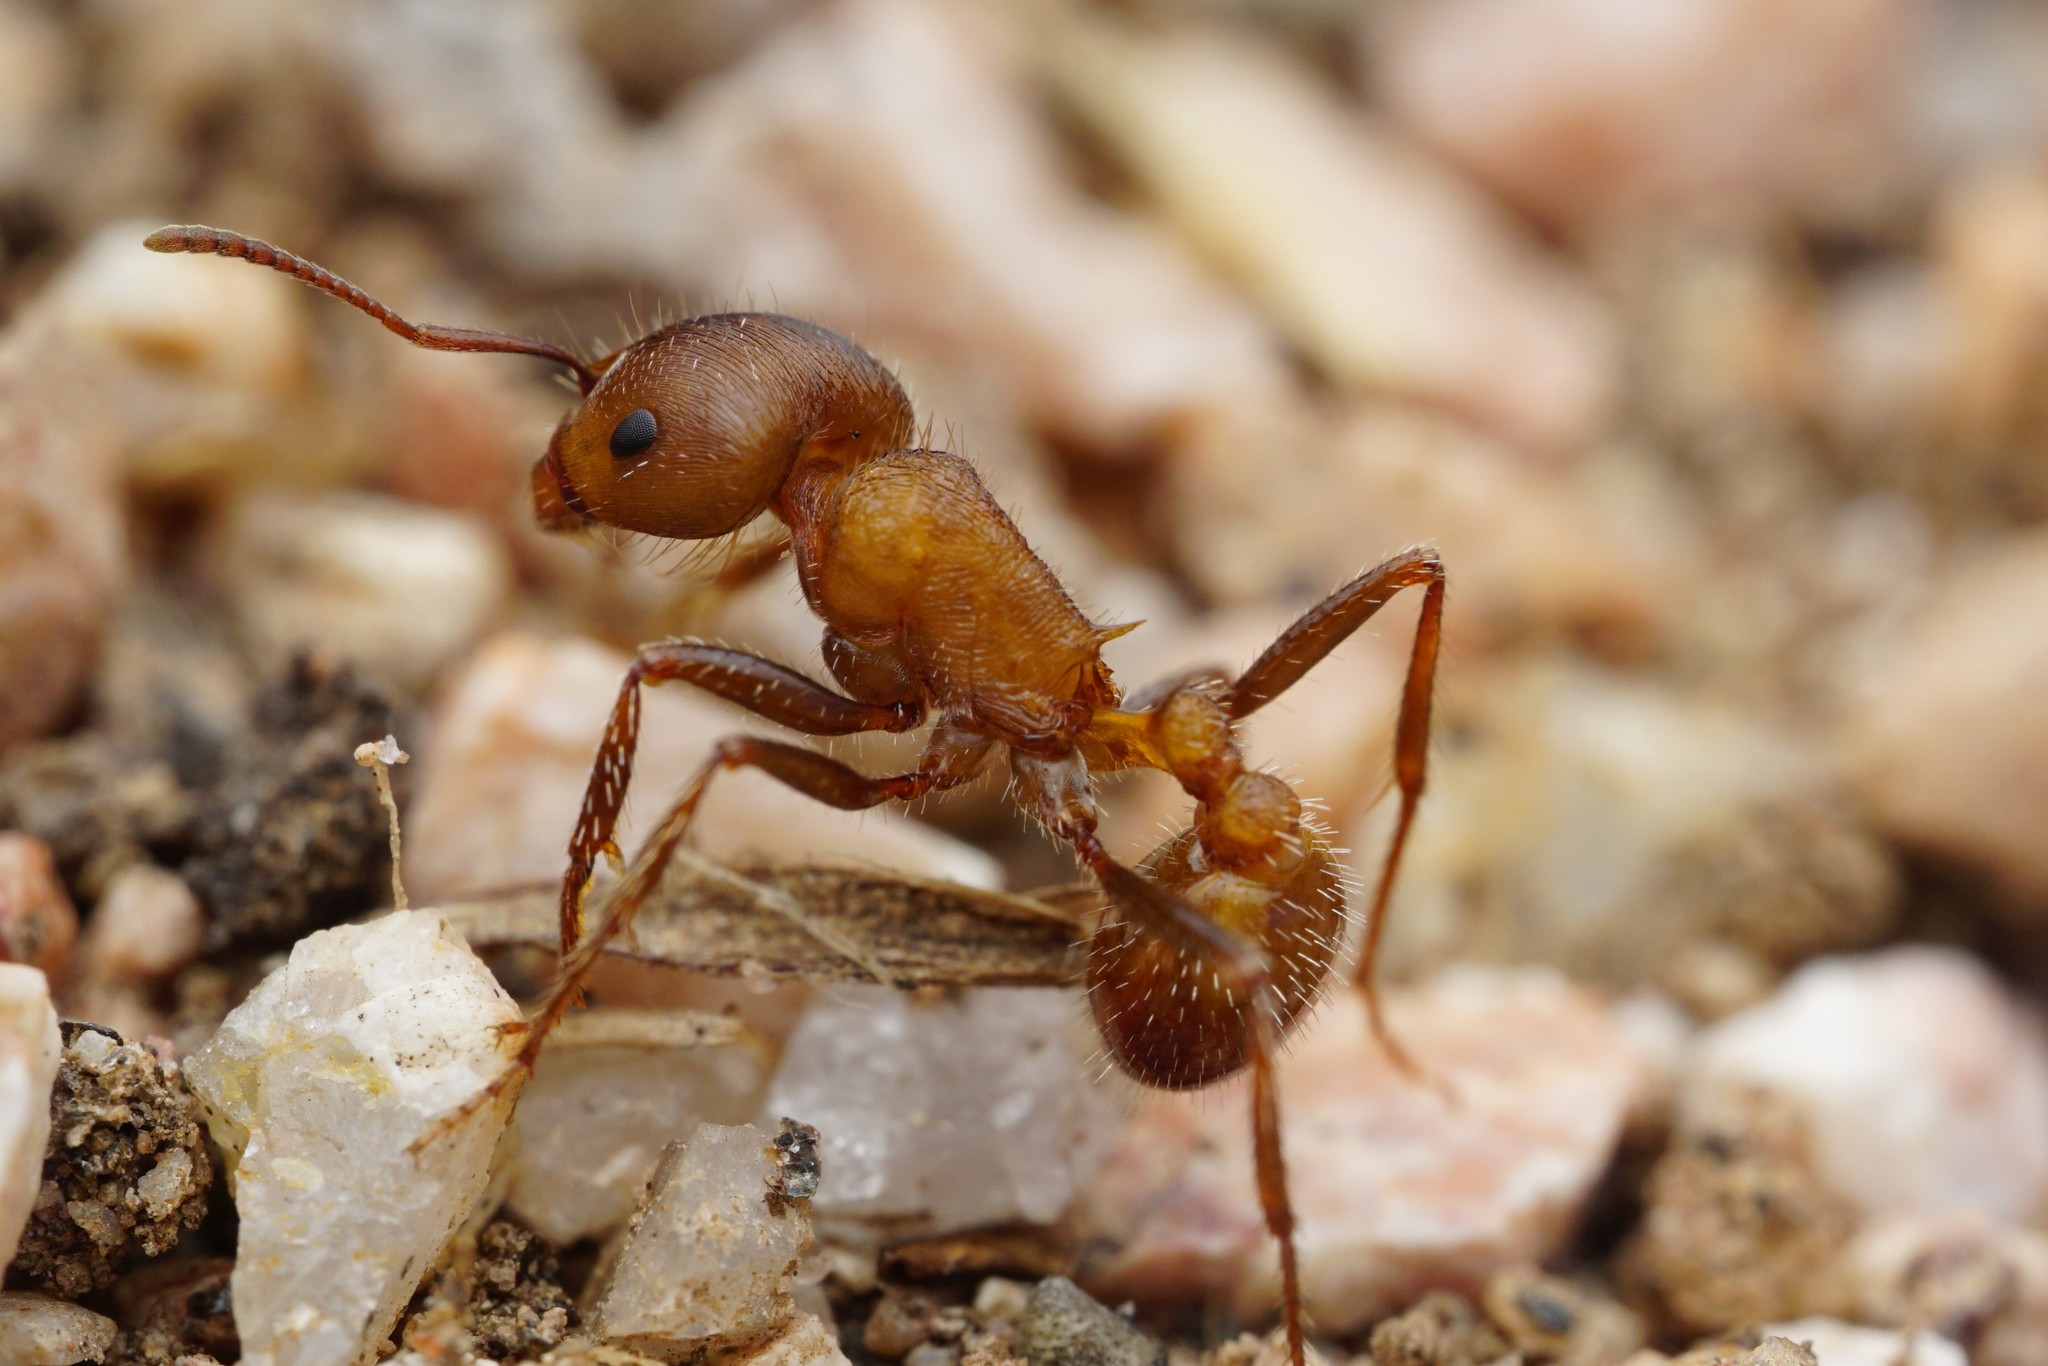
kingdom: Animalia
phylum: Arthropoda
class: Insecta
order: Hymenoptera
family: Formicidae
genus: Pogonomyrmex
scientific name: Pogonomyrmex rugosus
